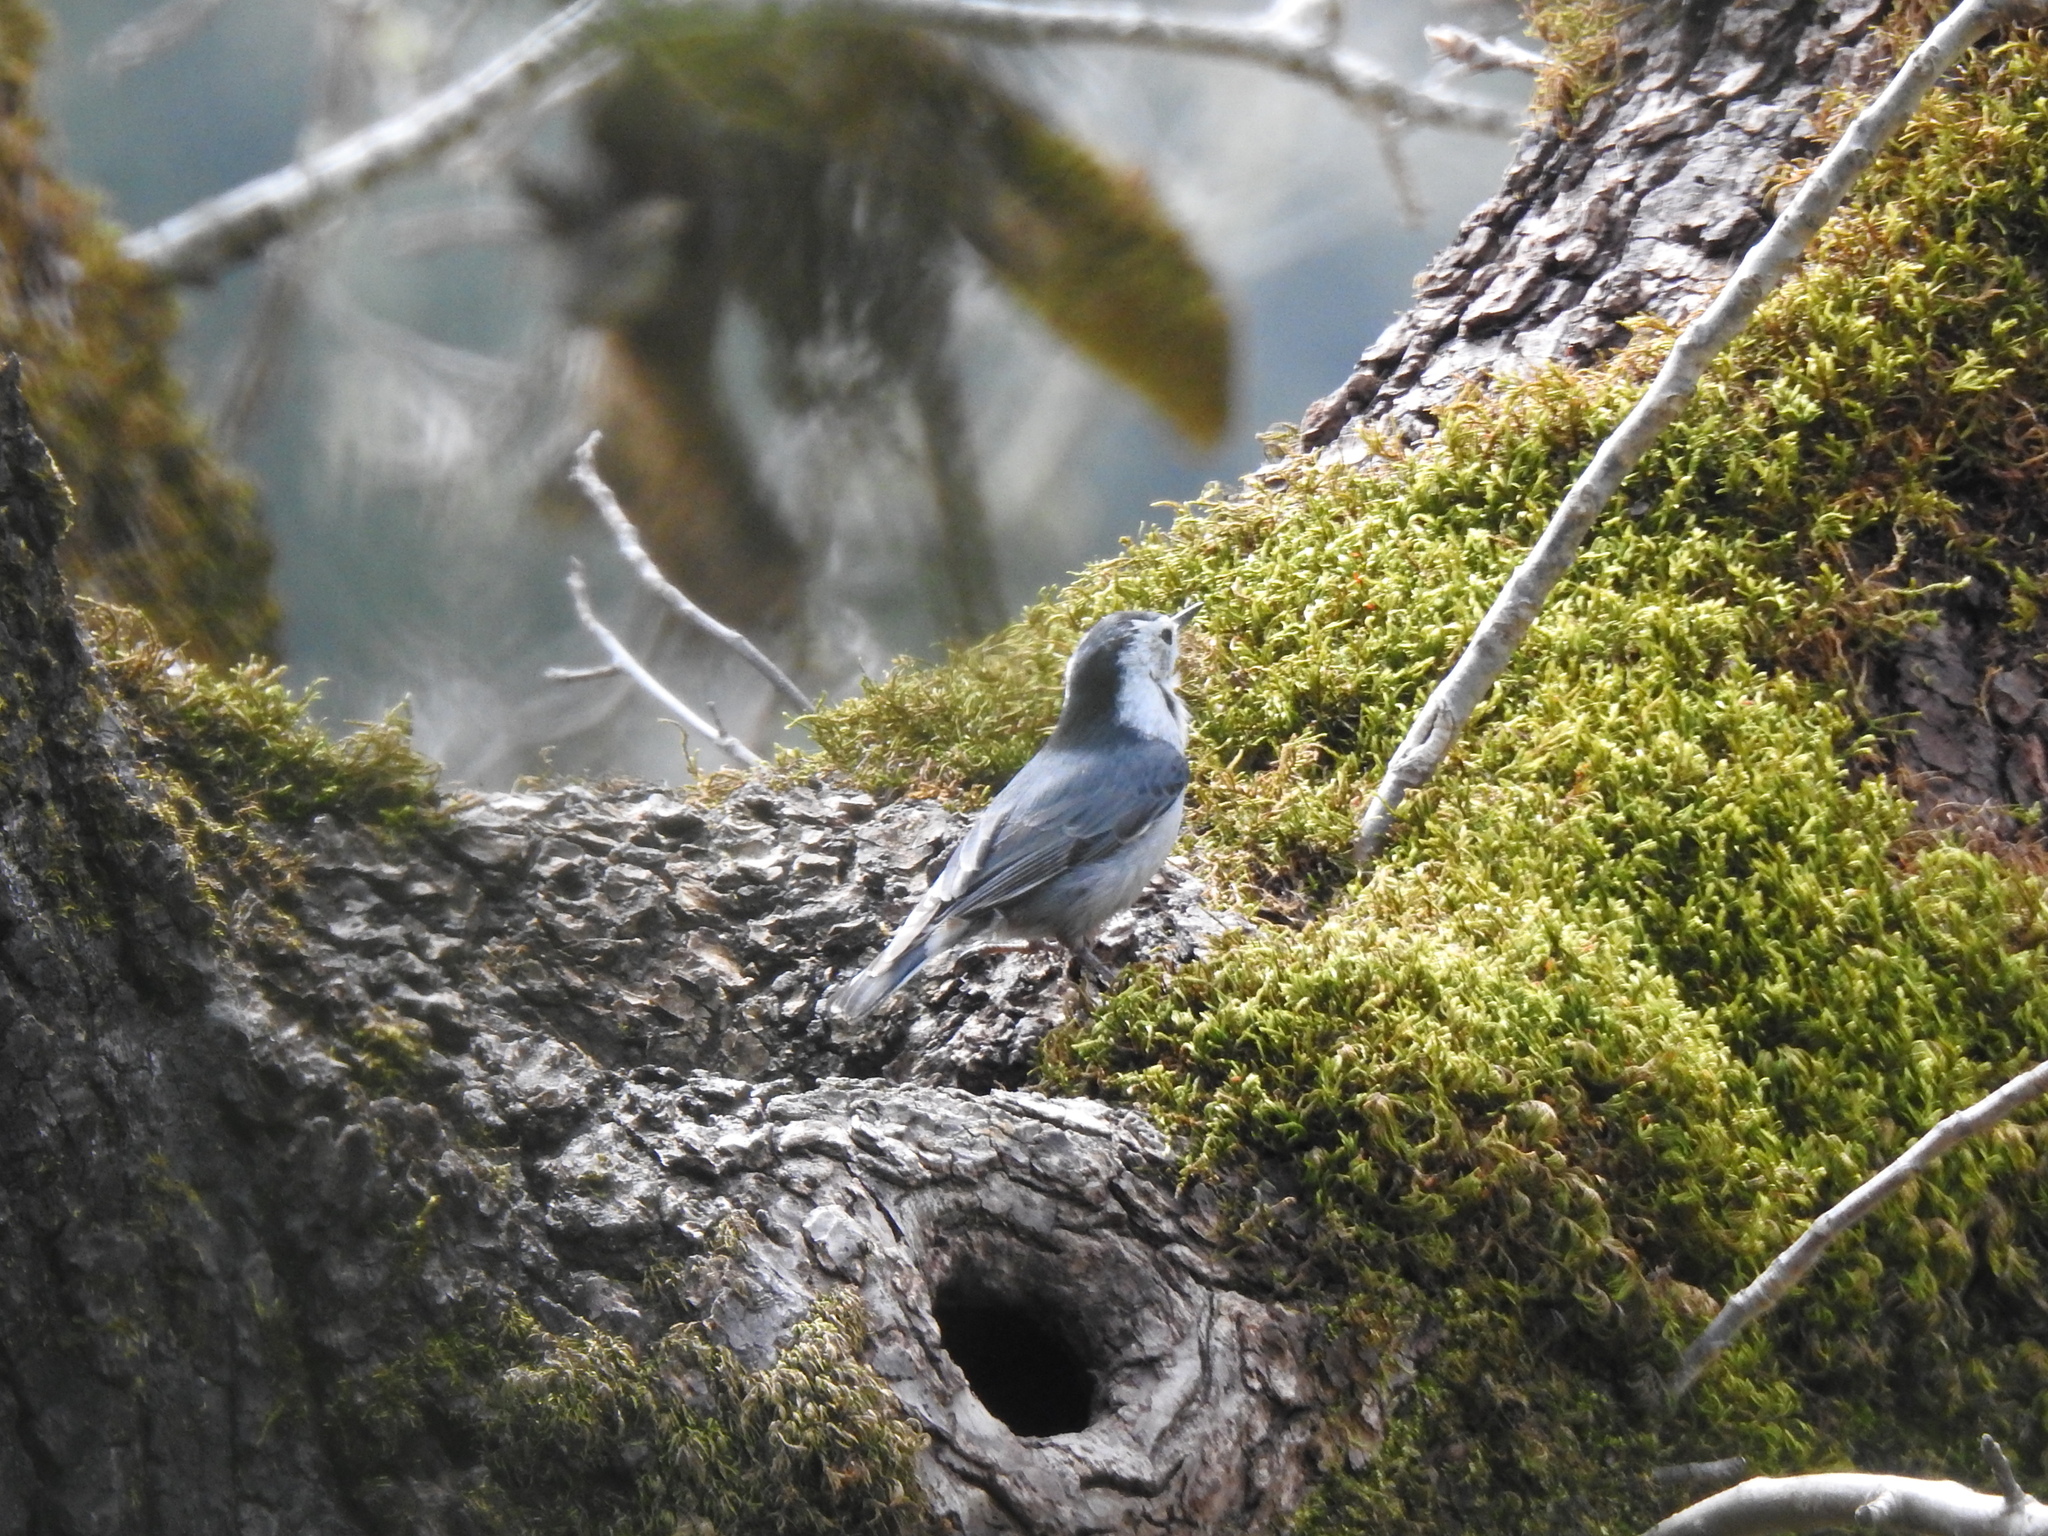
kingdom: Animalia
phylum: Chordata
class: Aves
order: Passeriformes
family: Sittidae
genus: Sitta
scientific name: Sitta carolinensis
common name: White-breasted nuthatch
